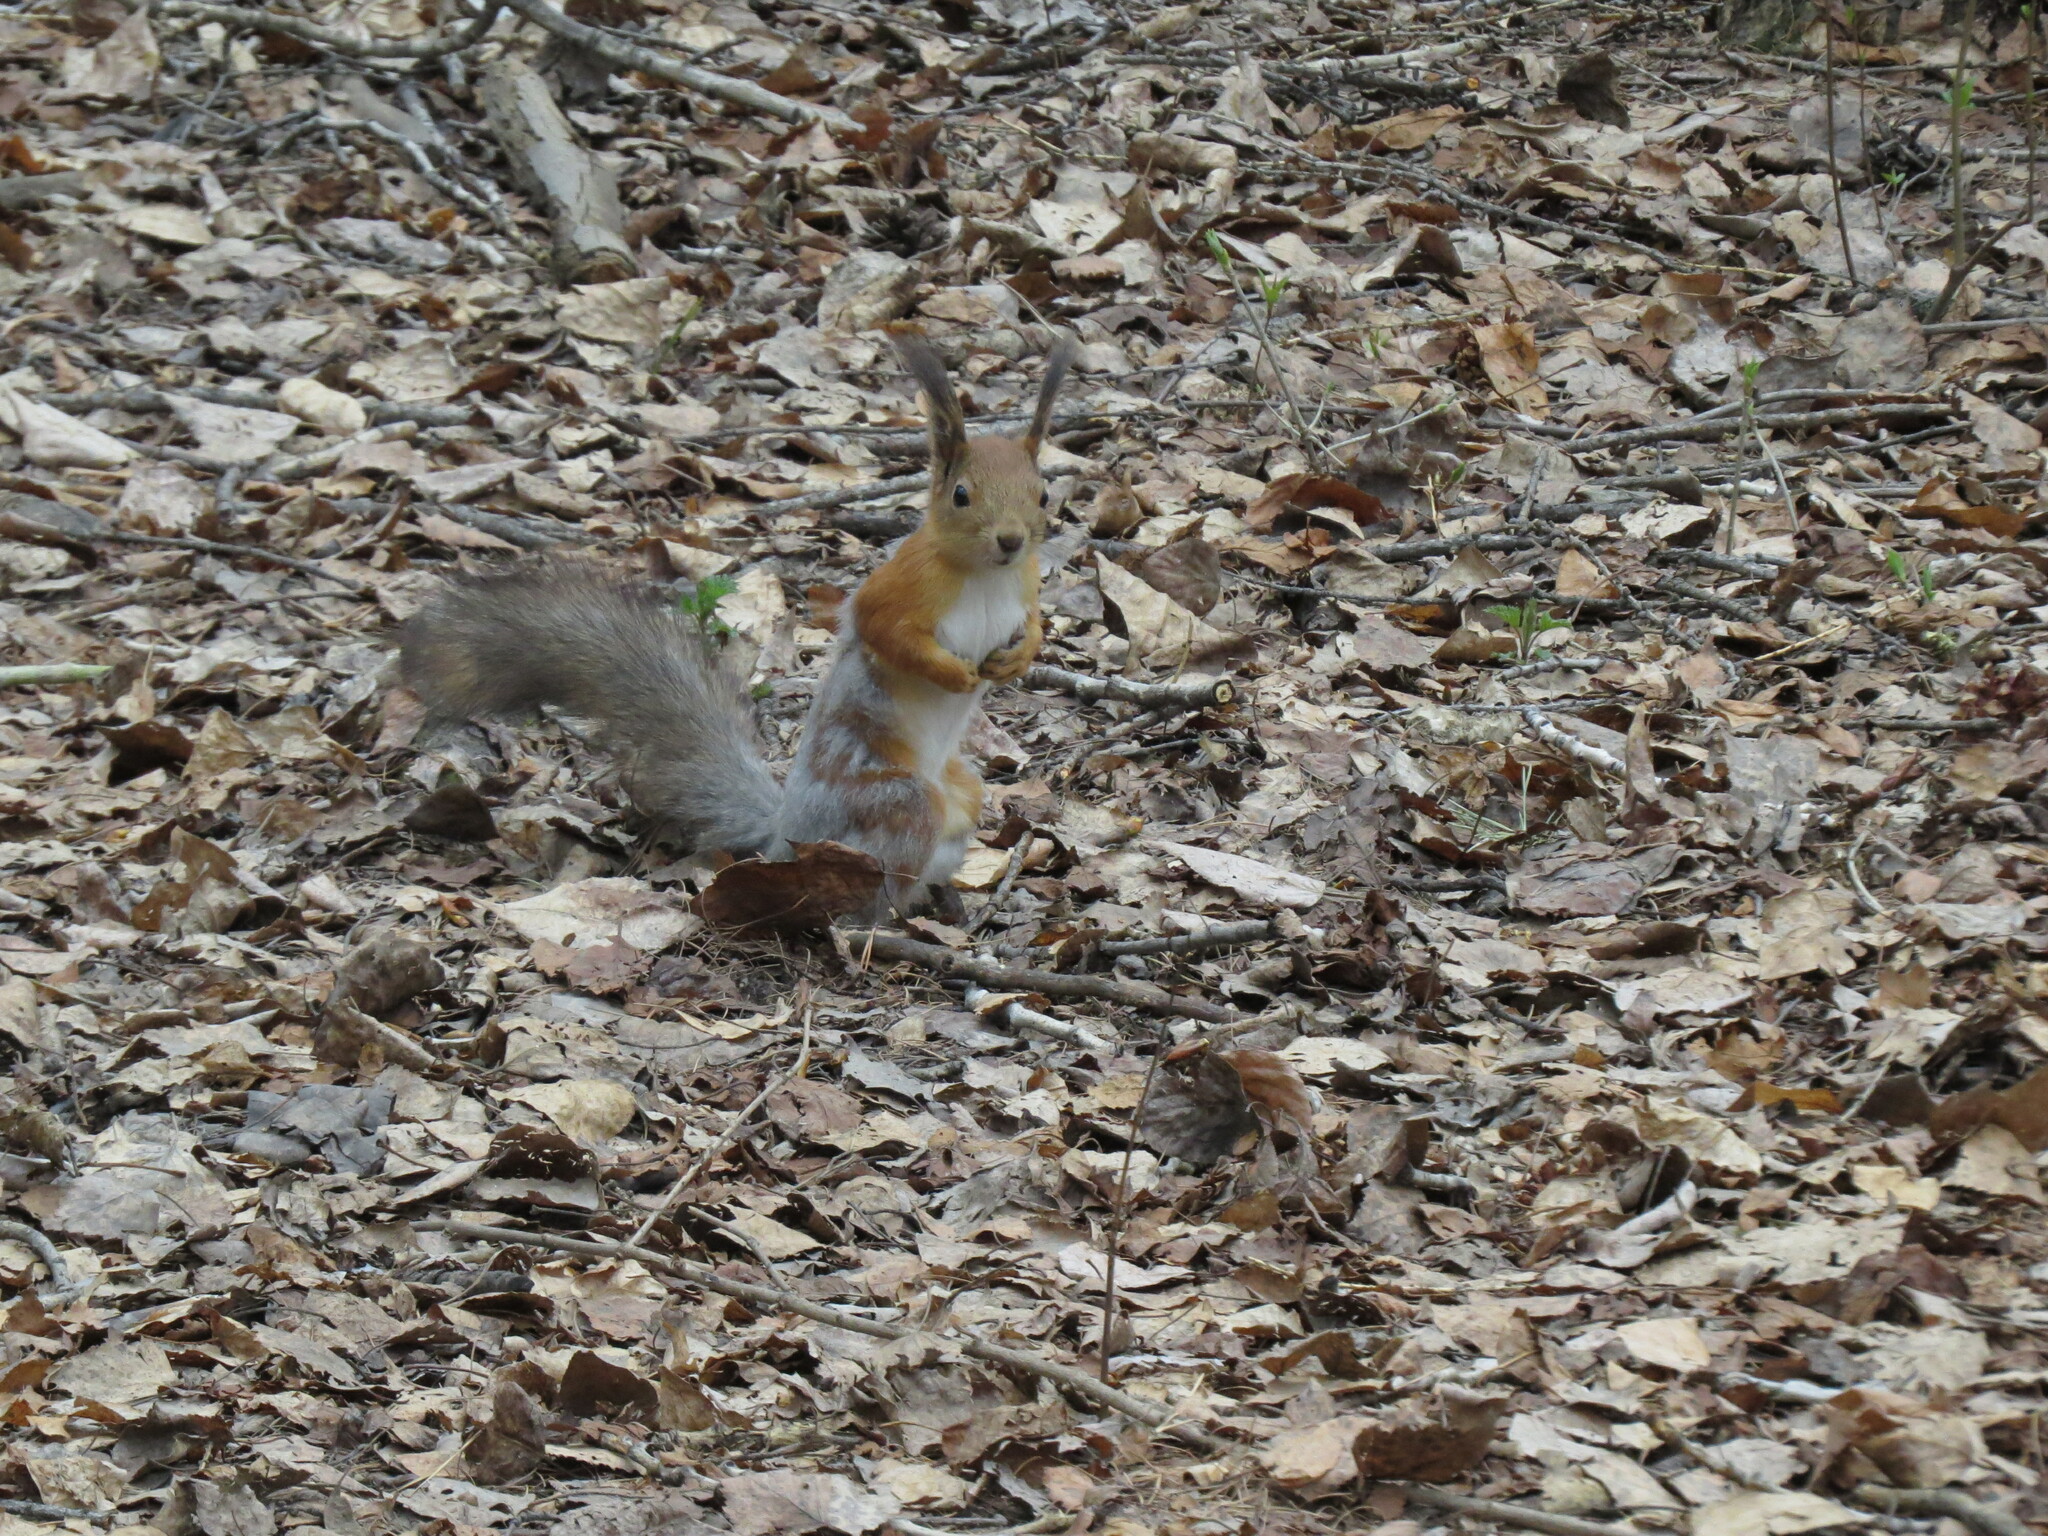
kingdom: Animalia
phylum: Chordata
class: Mammalia
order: Rodentia
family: Sciuridae
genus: Sciurus
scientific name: Sciurus vulgaris
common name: Eurasian red squirrel
